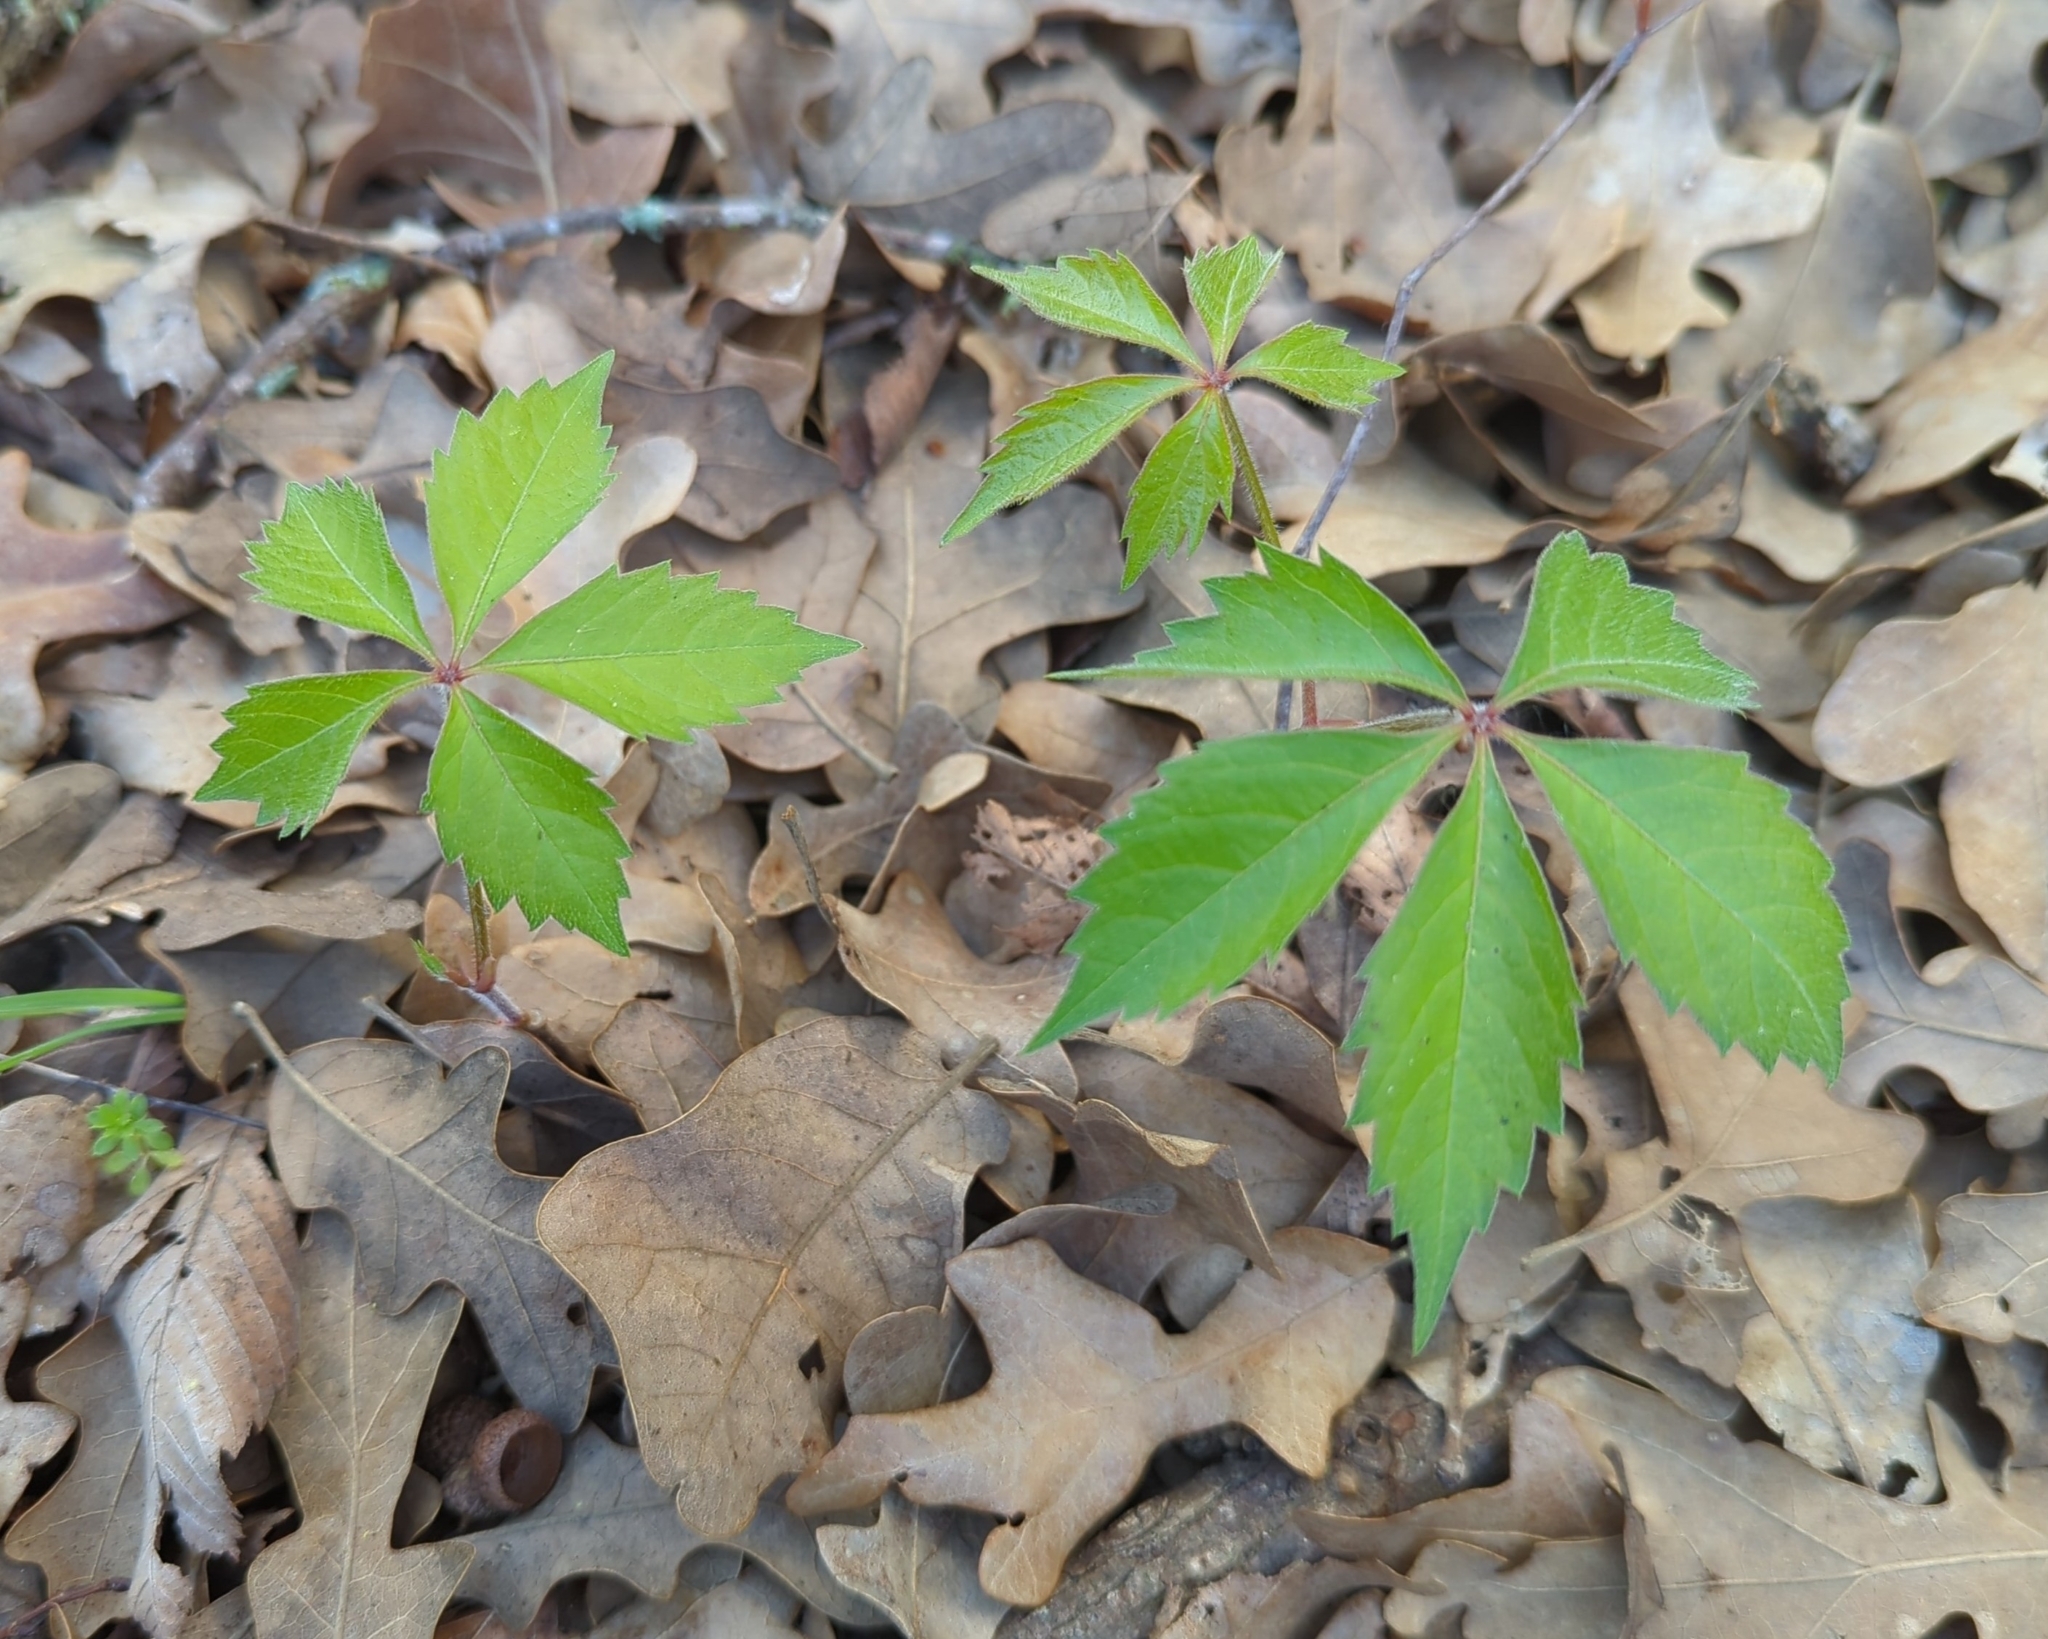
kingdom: Plantae
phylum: Tracheophyta
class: Magnoliopsida
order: Vitales
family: Vitaceae
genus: Parthenocissus
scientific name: Parthenocissus quinquefolia
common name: Virginia-creeper
